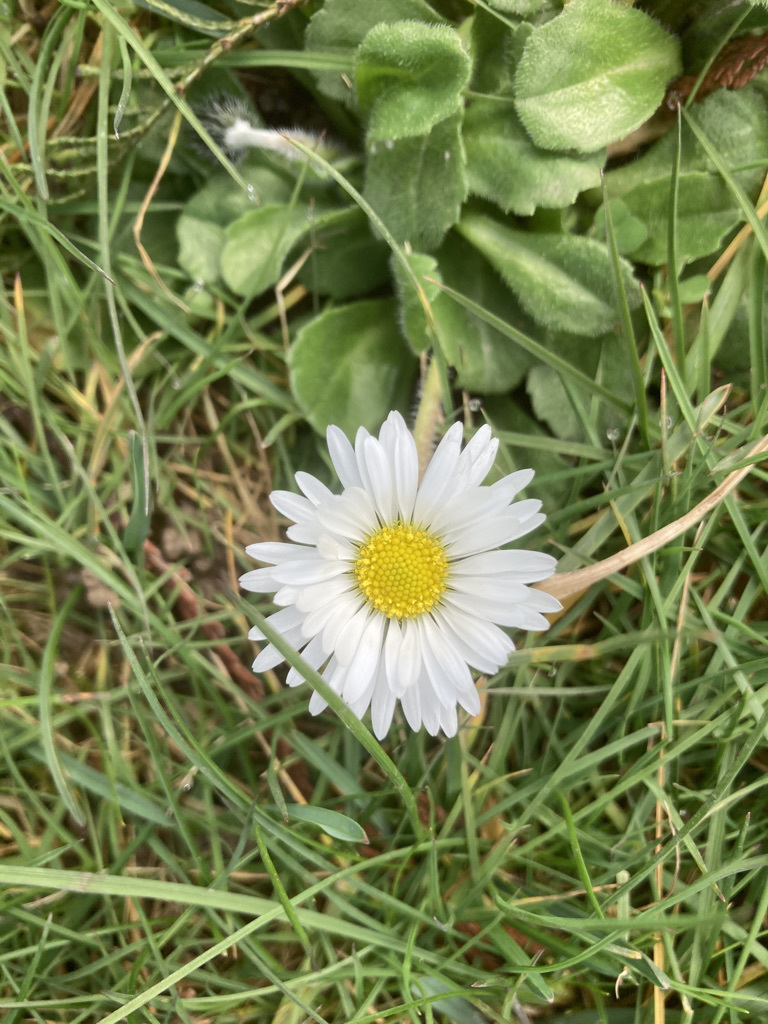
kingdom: Plantae
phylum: Tracheophyta
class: Magnoliopsida
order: Asterales
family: Asteraceae
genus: Bellis
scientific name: Bellis perennis
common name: Lawndaisy
